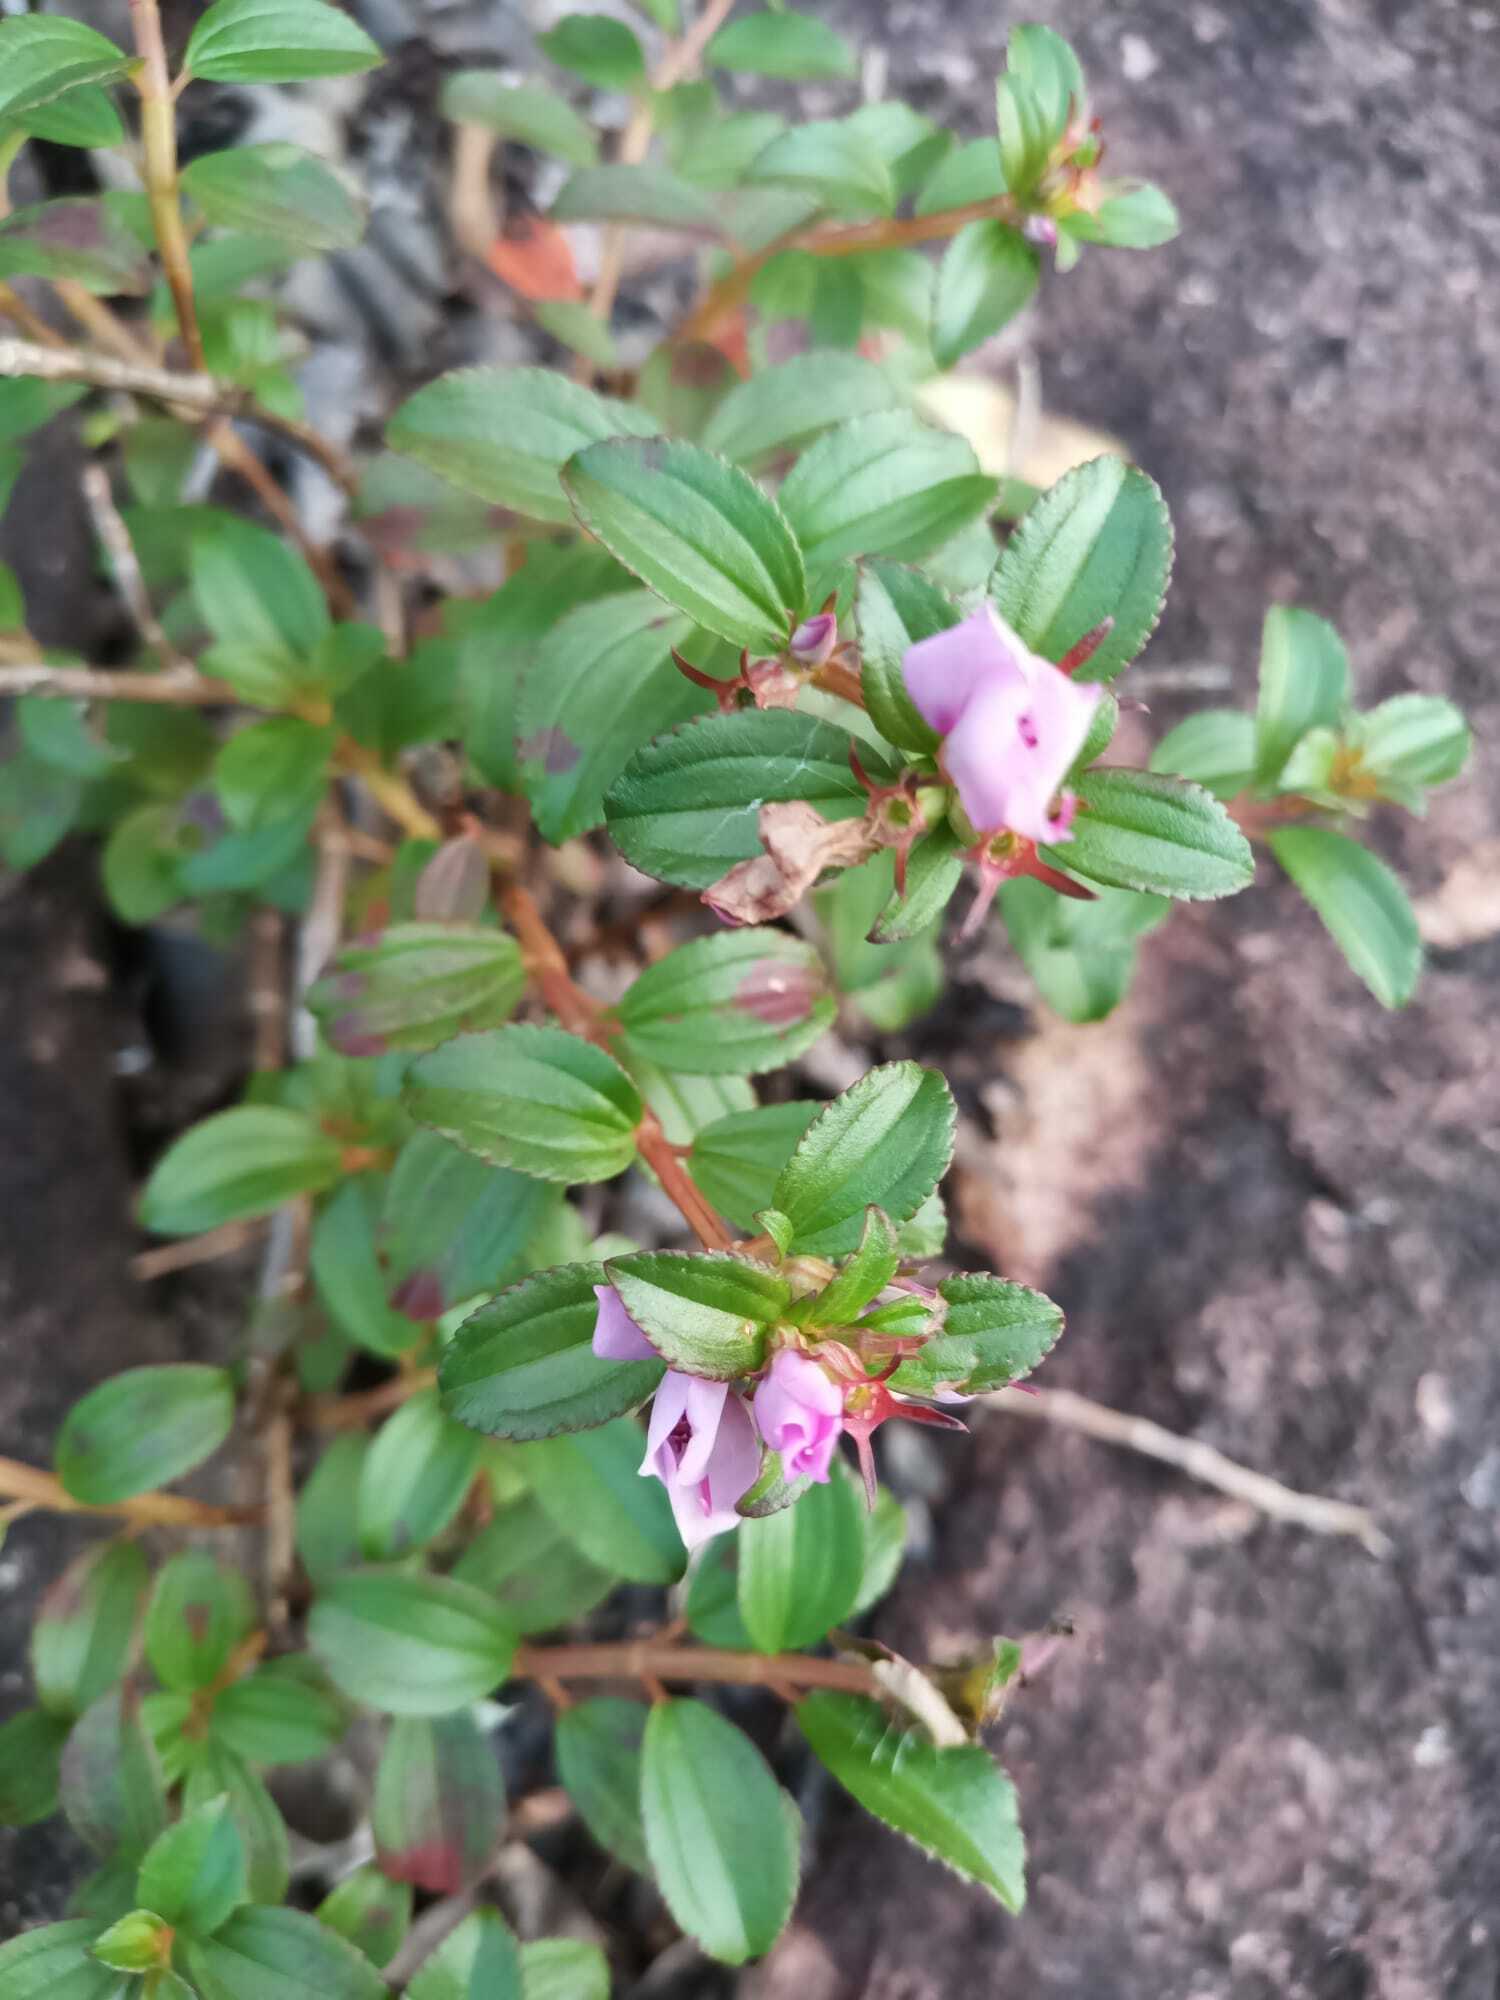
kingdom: Plantae
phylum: Tracheophyta
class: Magnoliopsida
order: Myrtales
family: Melastomataceae
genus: Comolia
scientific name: Comolia villosa
